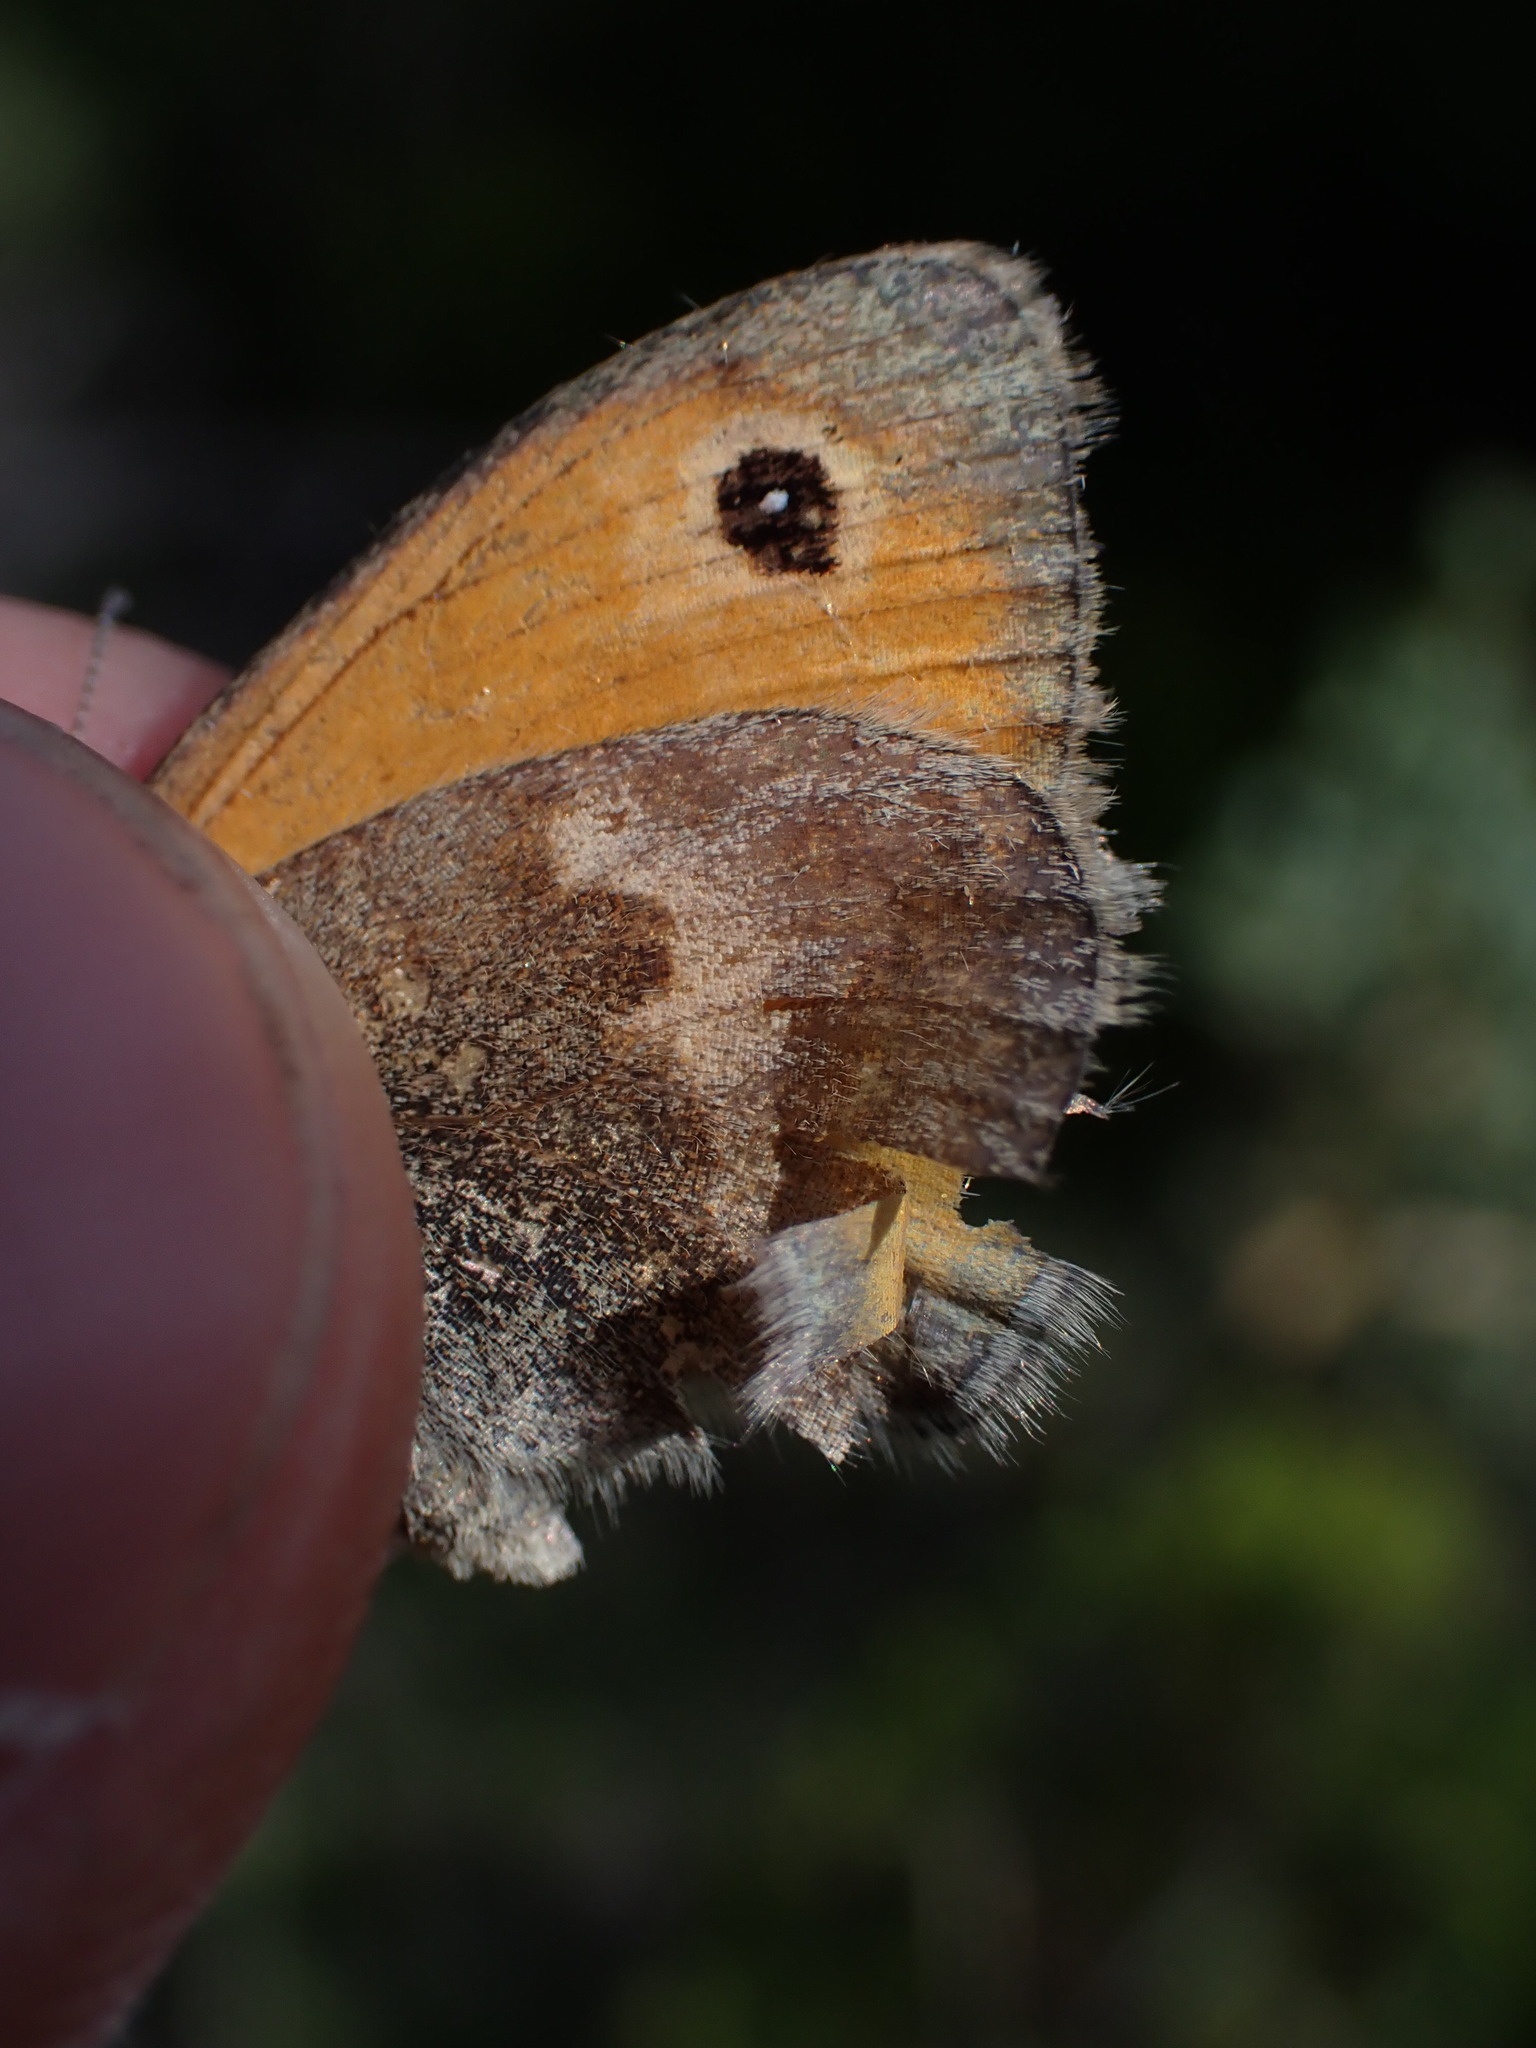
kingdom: Animalia
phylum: Arthropoda
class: Insecta
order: Lepidoptera
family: Nymphalidae
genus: Coenonympha
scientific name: Coenonympha pamphilus
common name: Small heath
